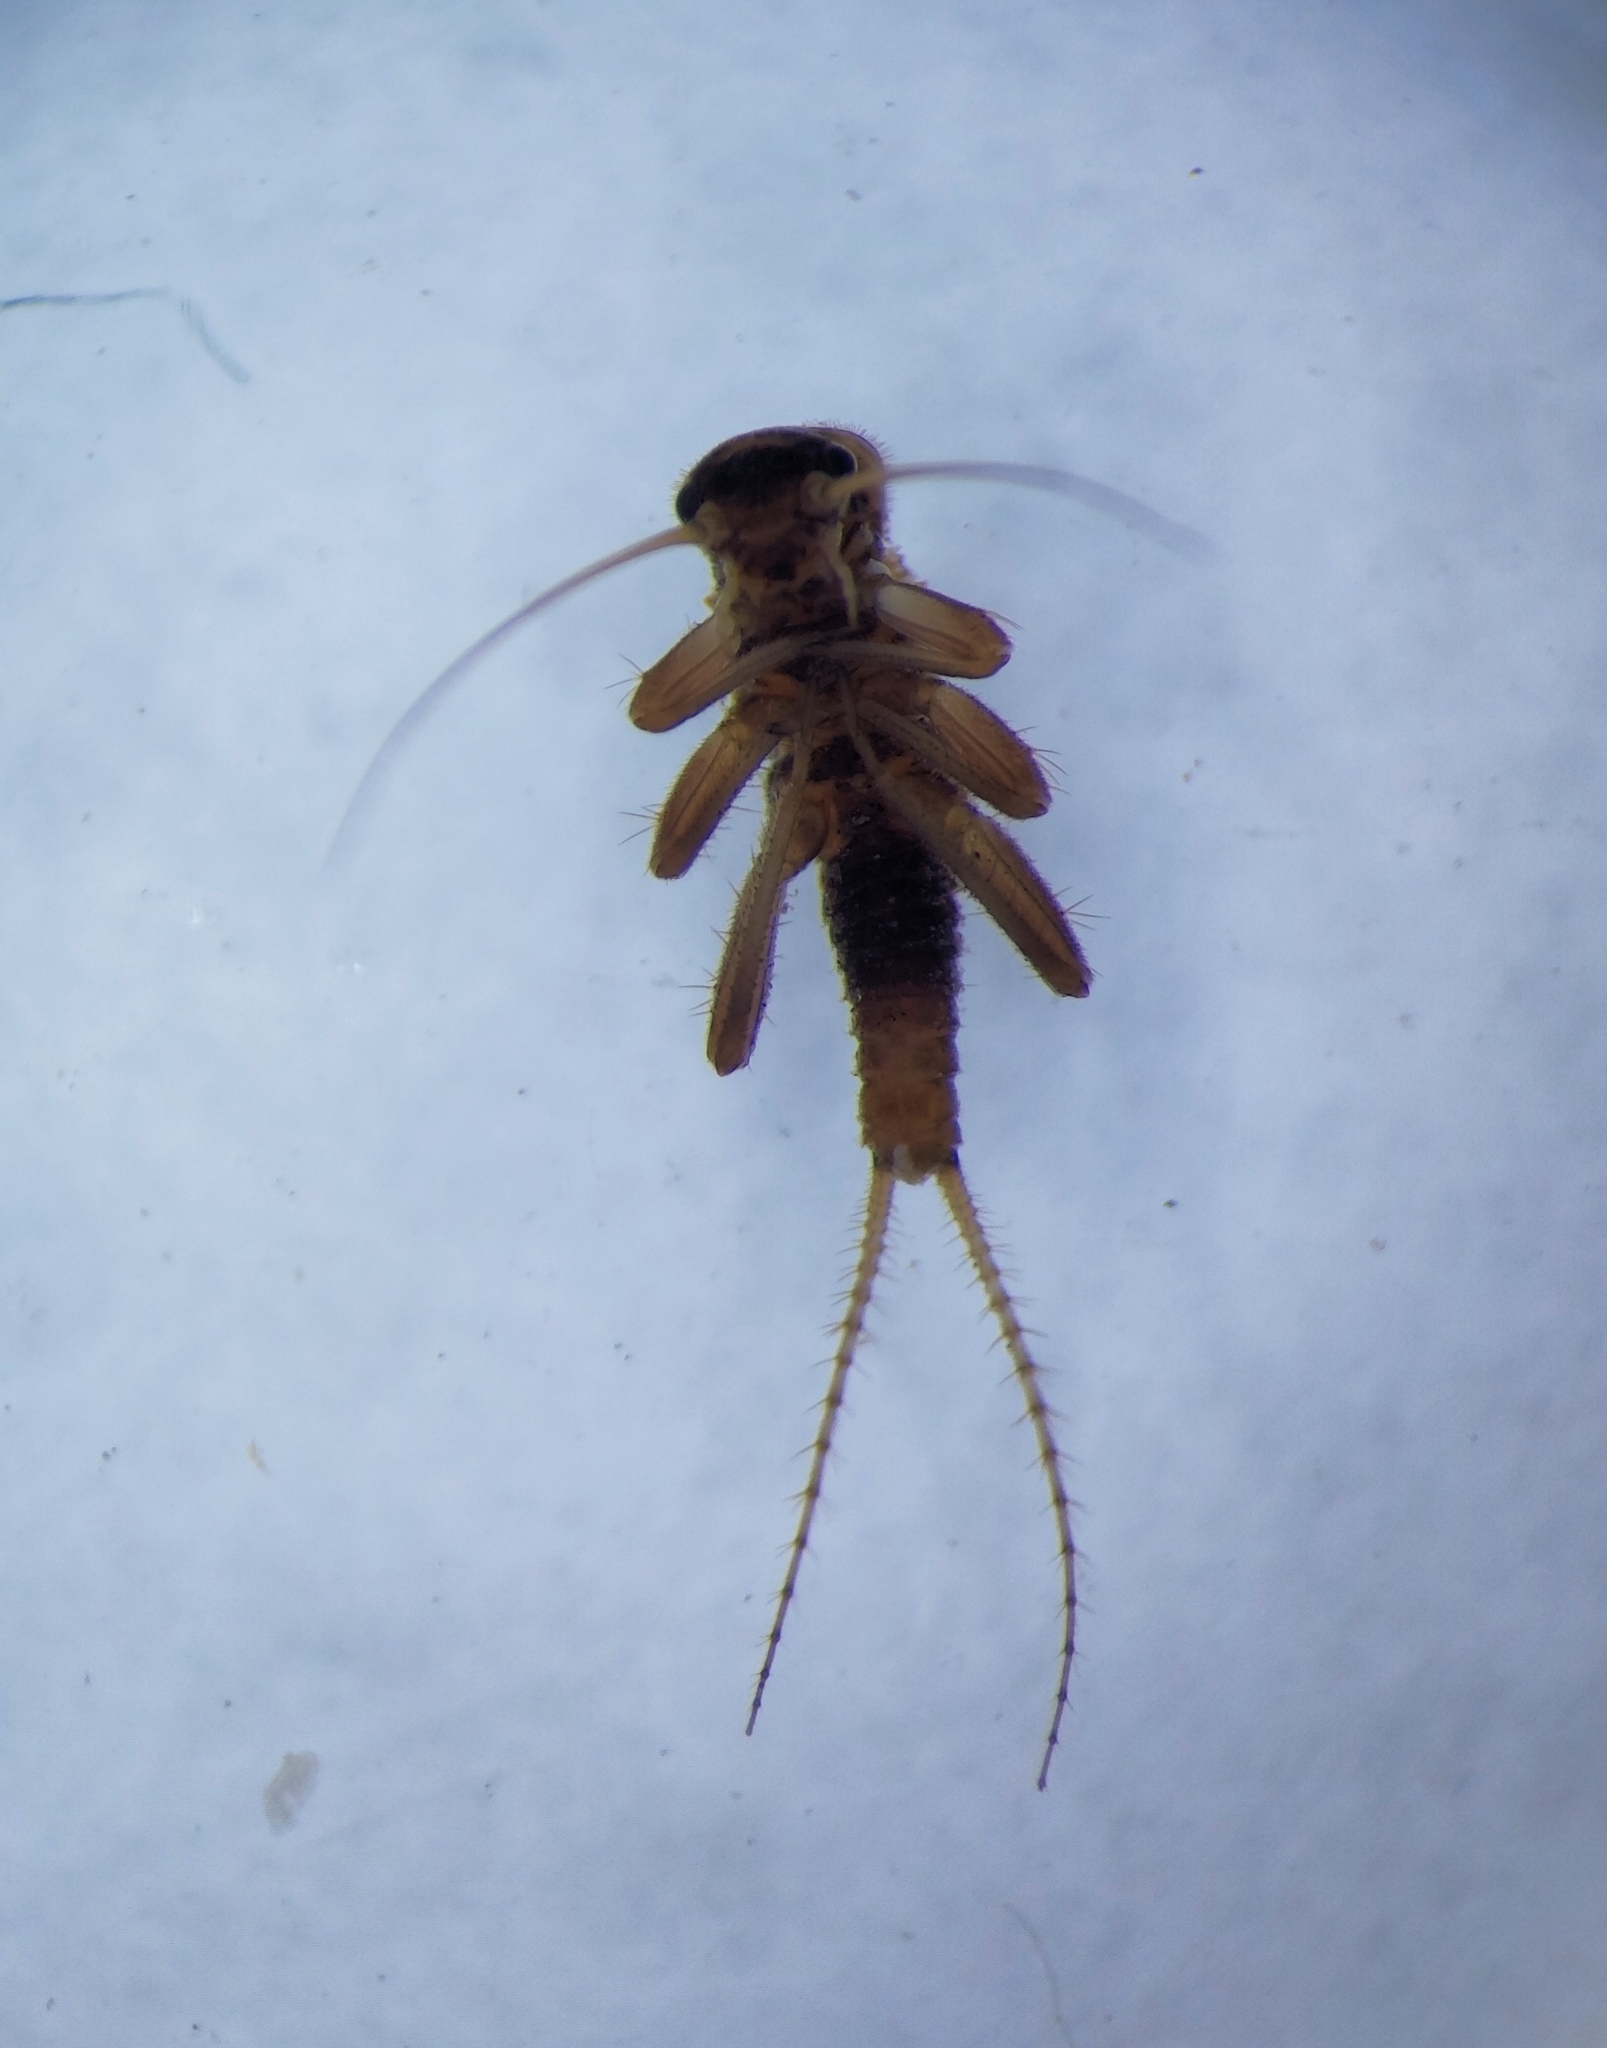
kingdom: Animalia
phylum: Arthropoda
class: Insecta
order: Plecoptera
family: Nemouridae
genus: Nemurella
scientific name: Nemurella pictetii
